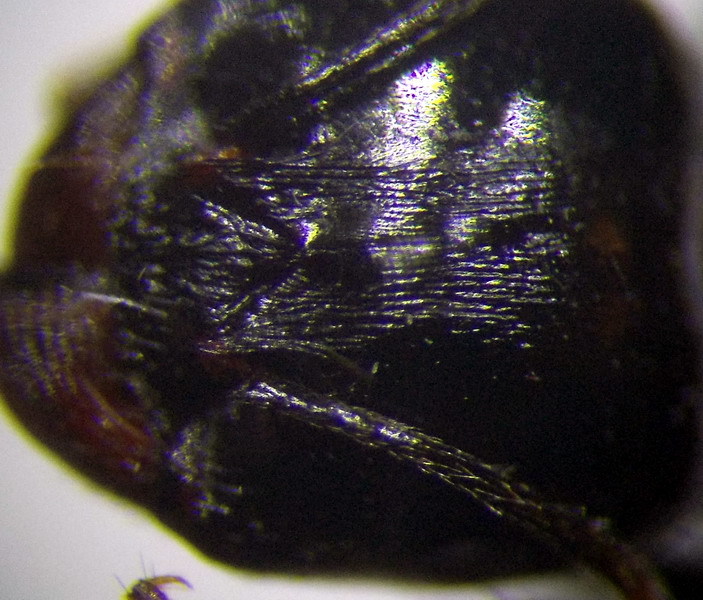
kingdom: Animalia
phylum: Arthropoda
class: Insecta
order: Hymenoptera
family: Formicidae
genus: Messor
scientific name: Messor denticulatus
